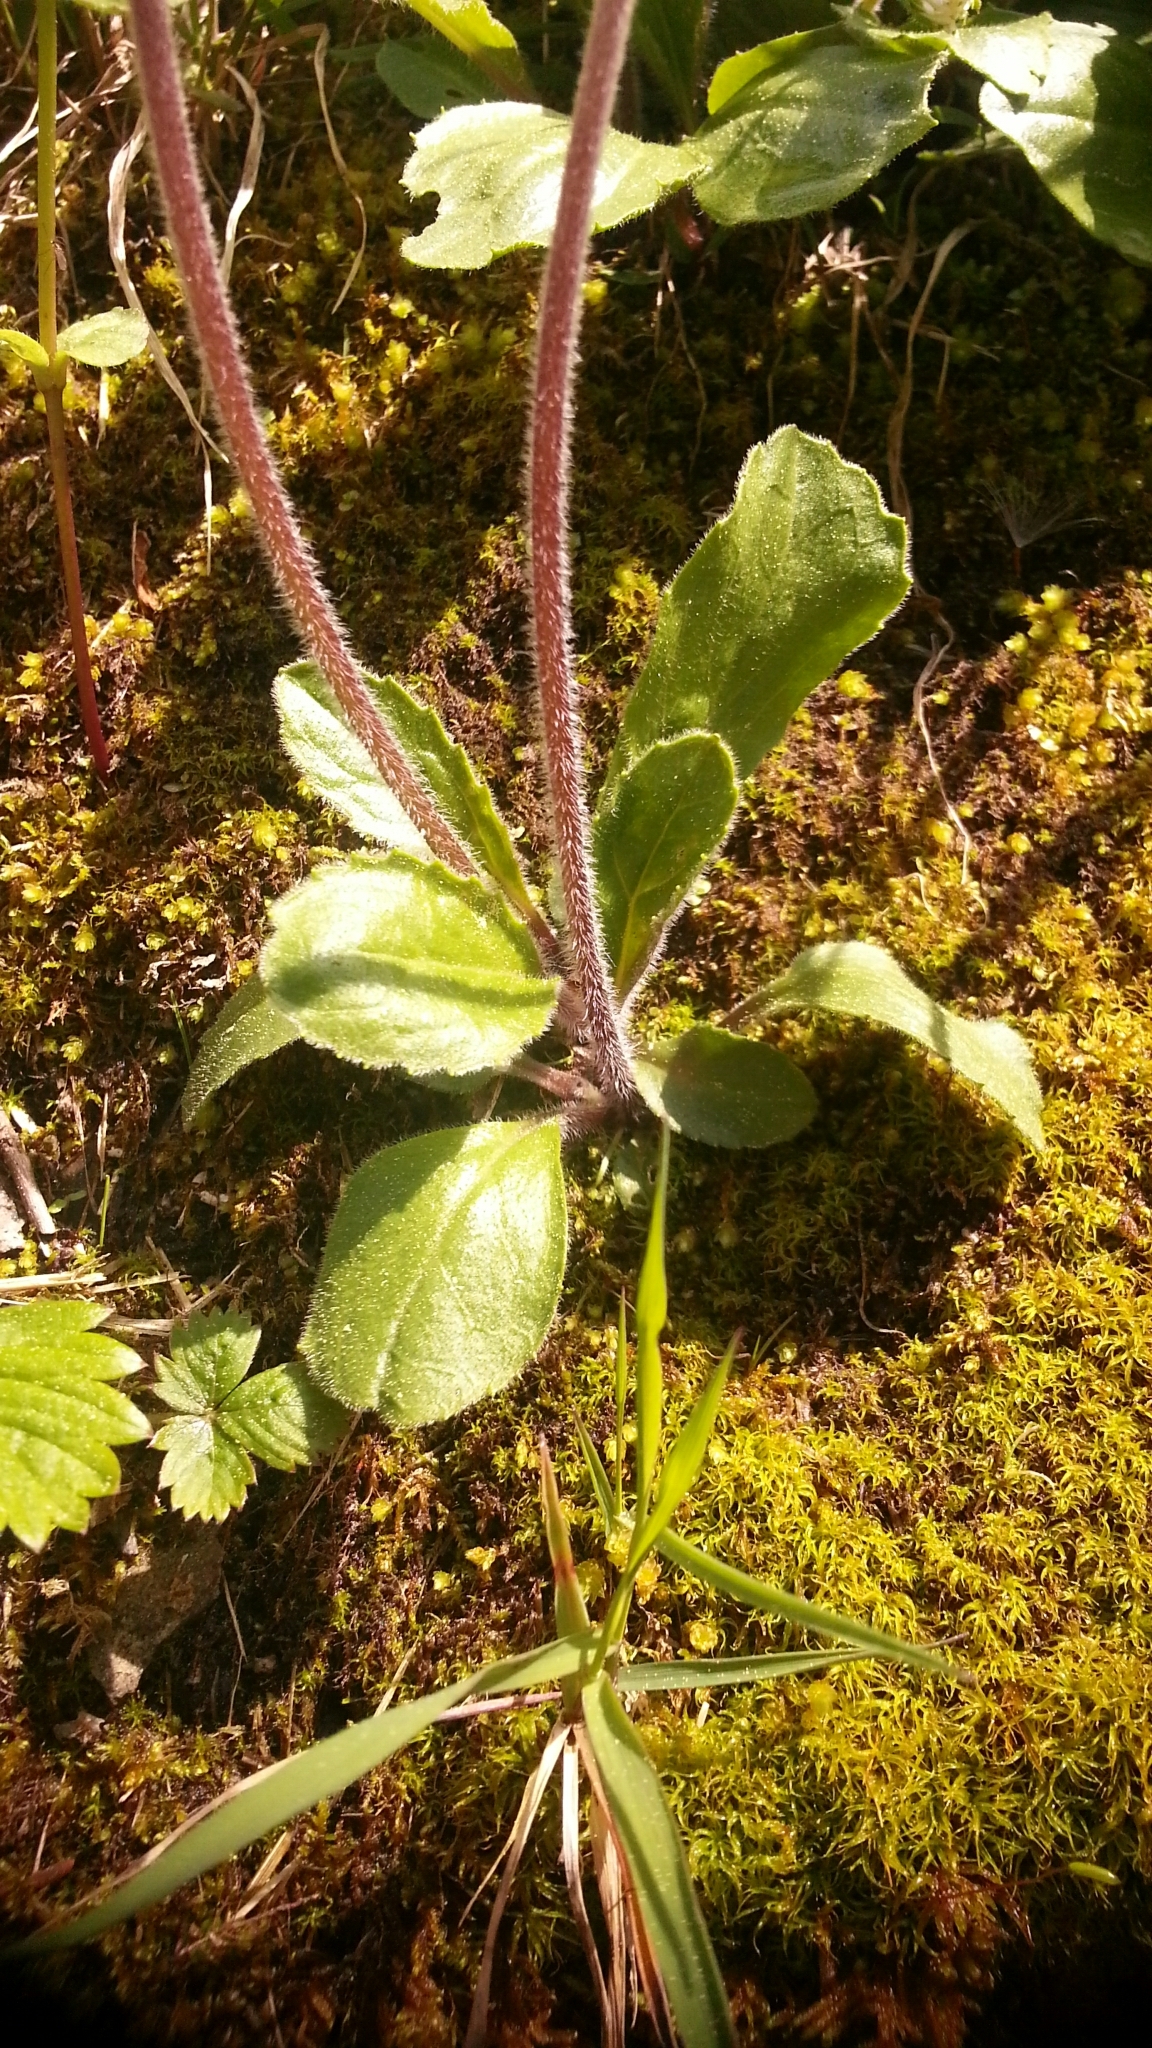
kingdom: Plantae
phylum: Tracheophyta
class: Magnoliopsida
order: Asterales
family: Asteraceae
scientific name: Asteraceae
